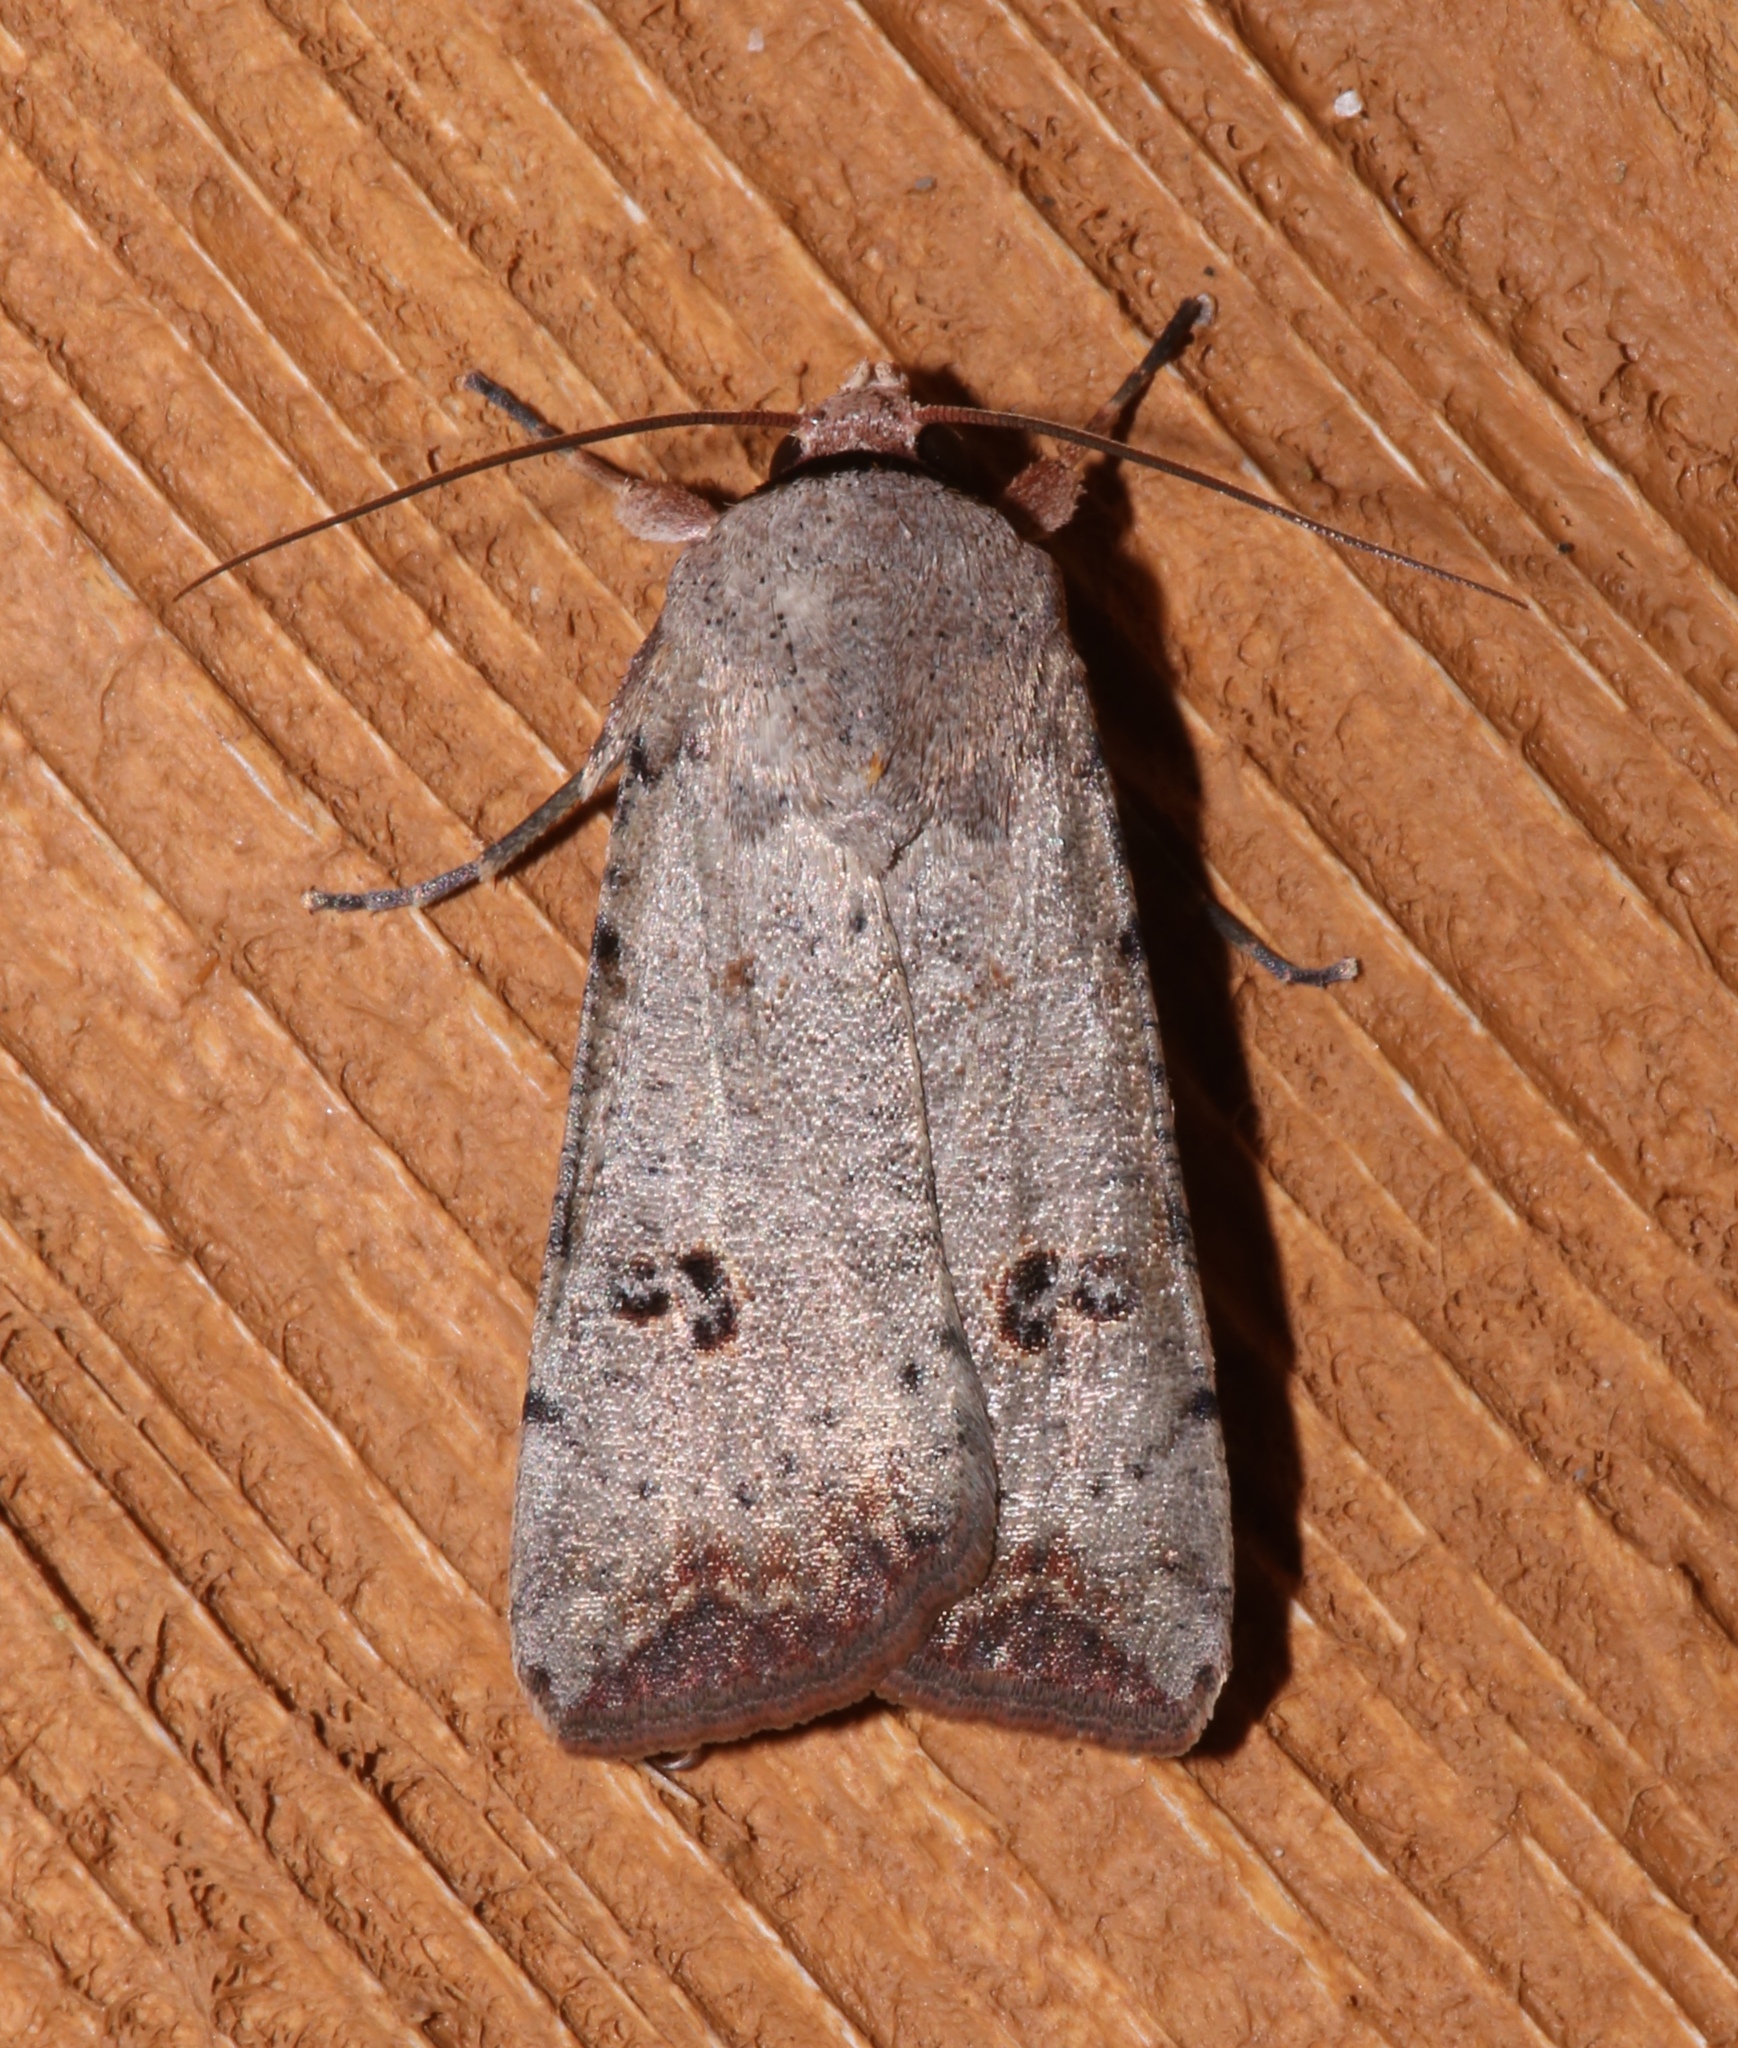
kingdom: Animalia
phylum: Arthropoda
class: Insecta
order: Lepidoptera
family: Noctuidae
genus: Anicla
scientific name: Anicla infecta
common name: Green cutworm
